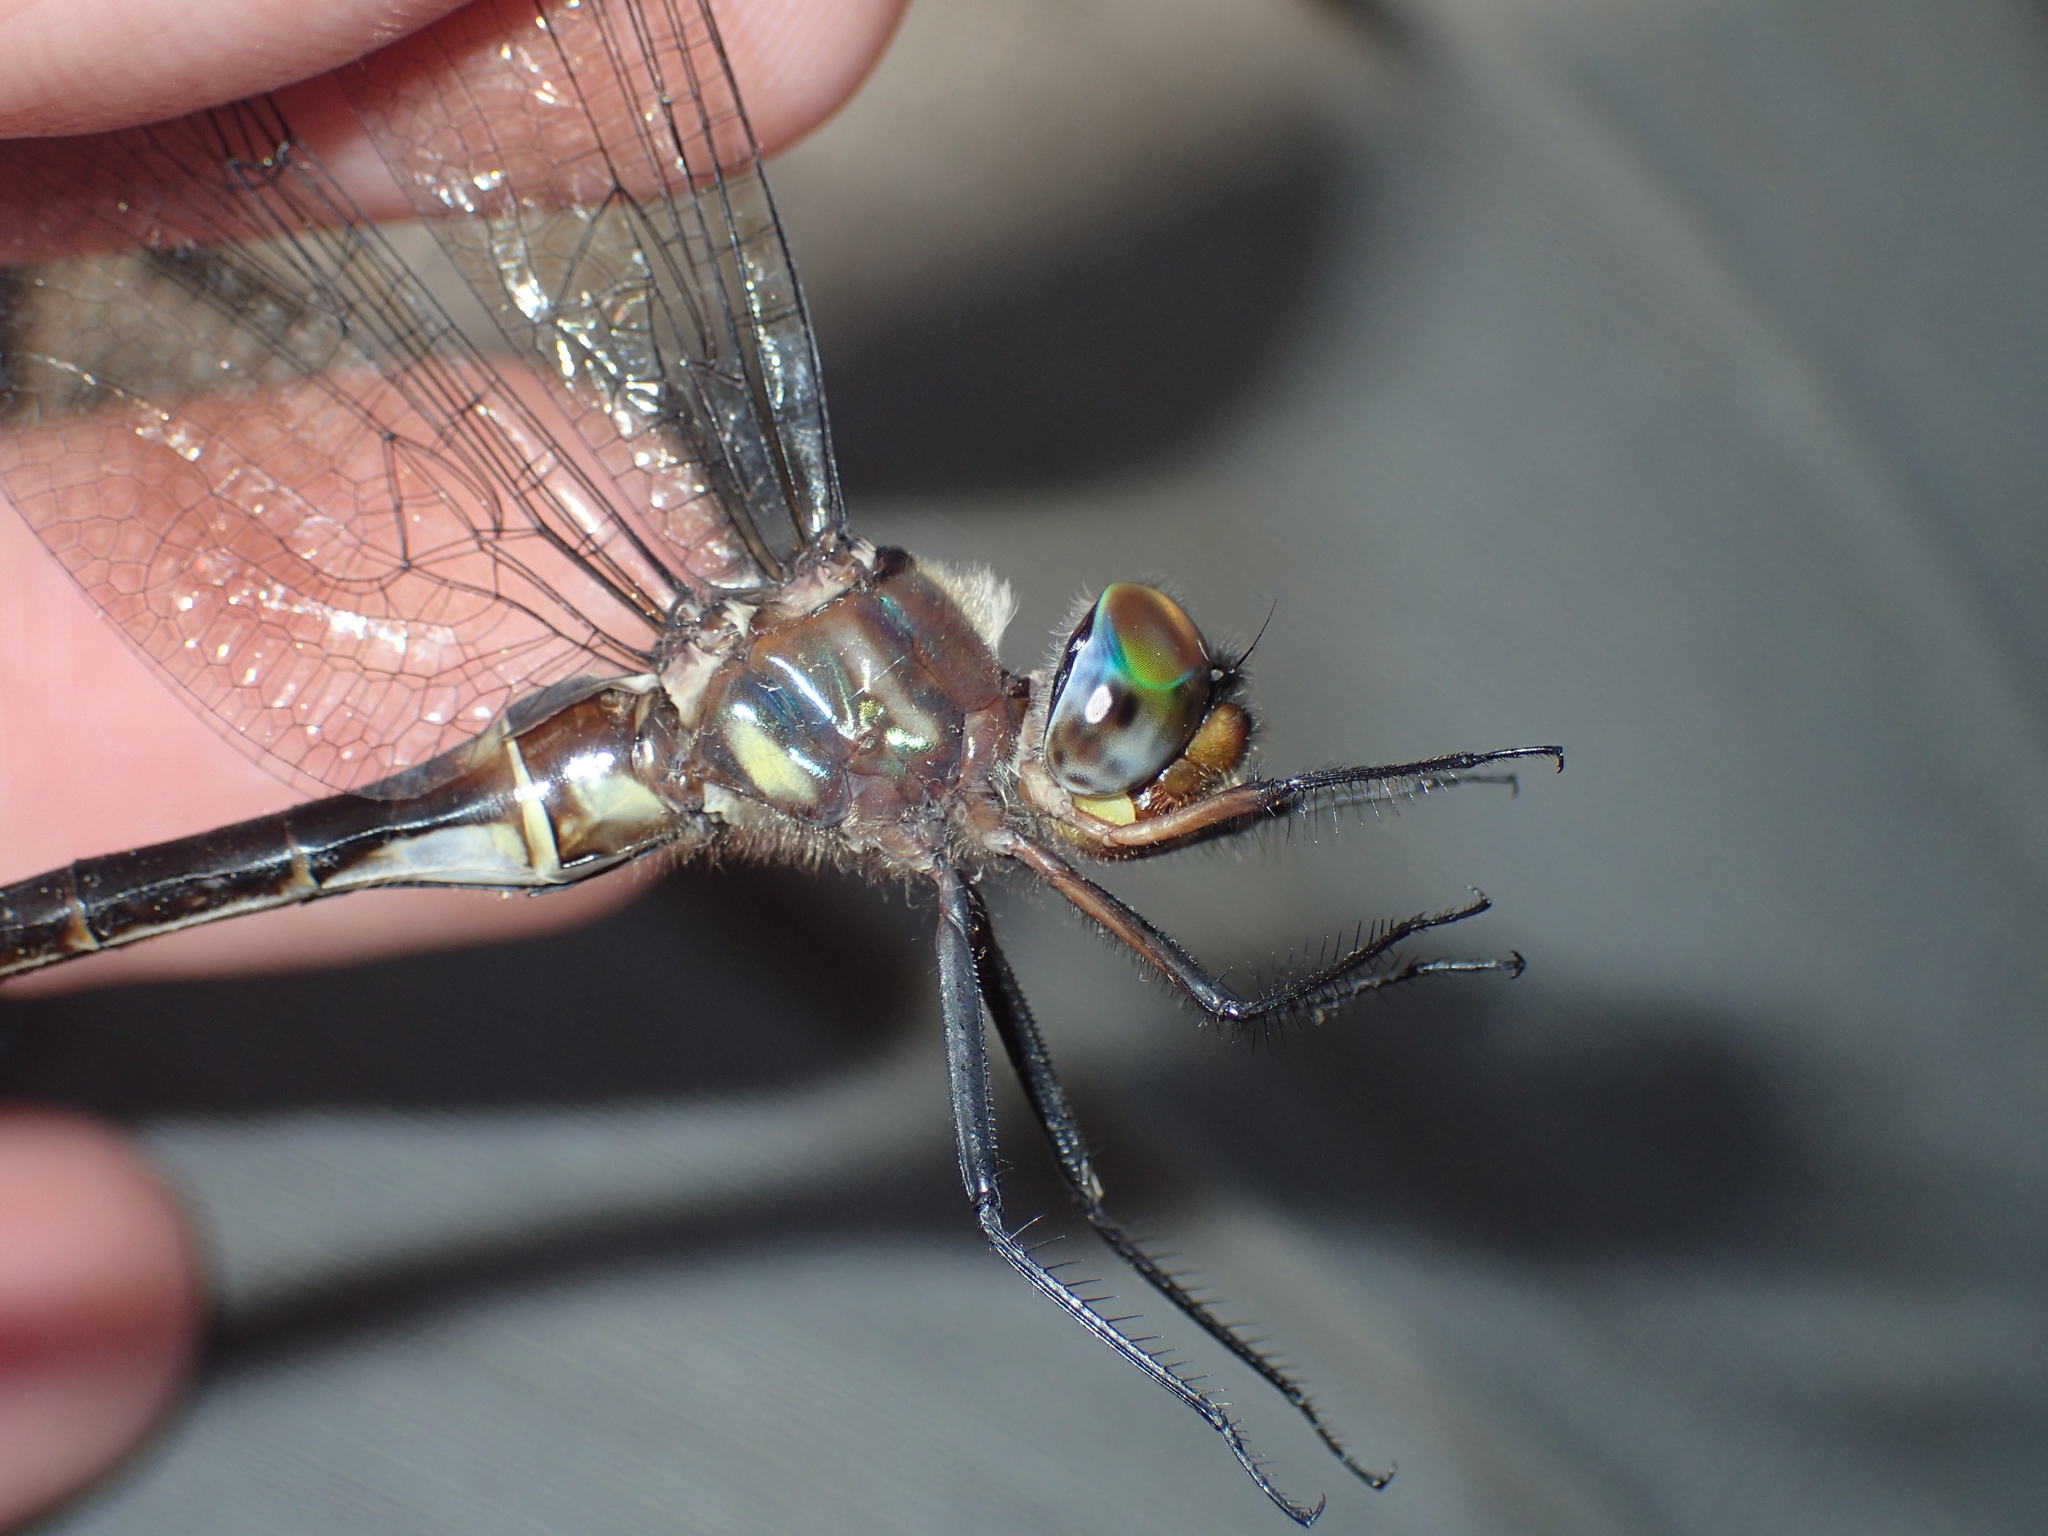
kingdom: Animalia
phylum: Arthropoda
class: Insecta
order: Odonata
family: Corduliidae
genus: Somatochlora
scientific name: Somatochlora tenebrosa
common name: Clamp-tipped emerald
